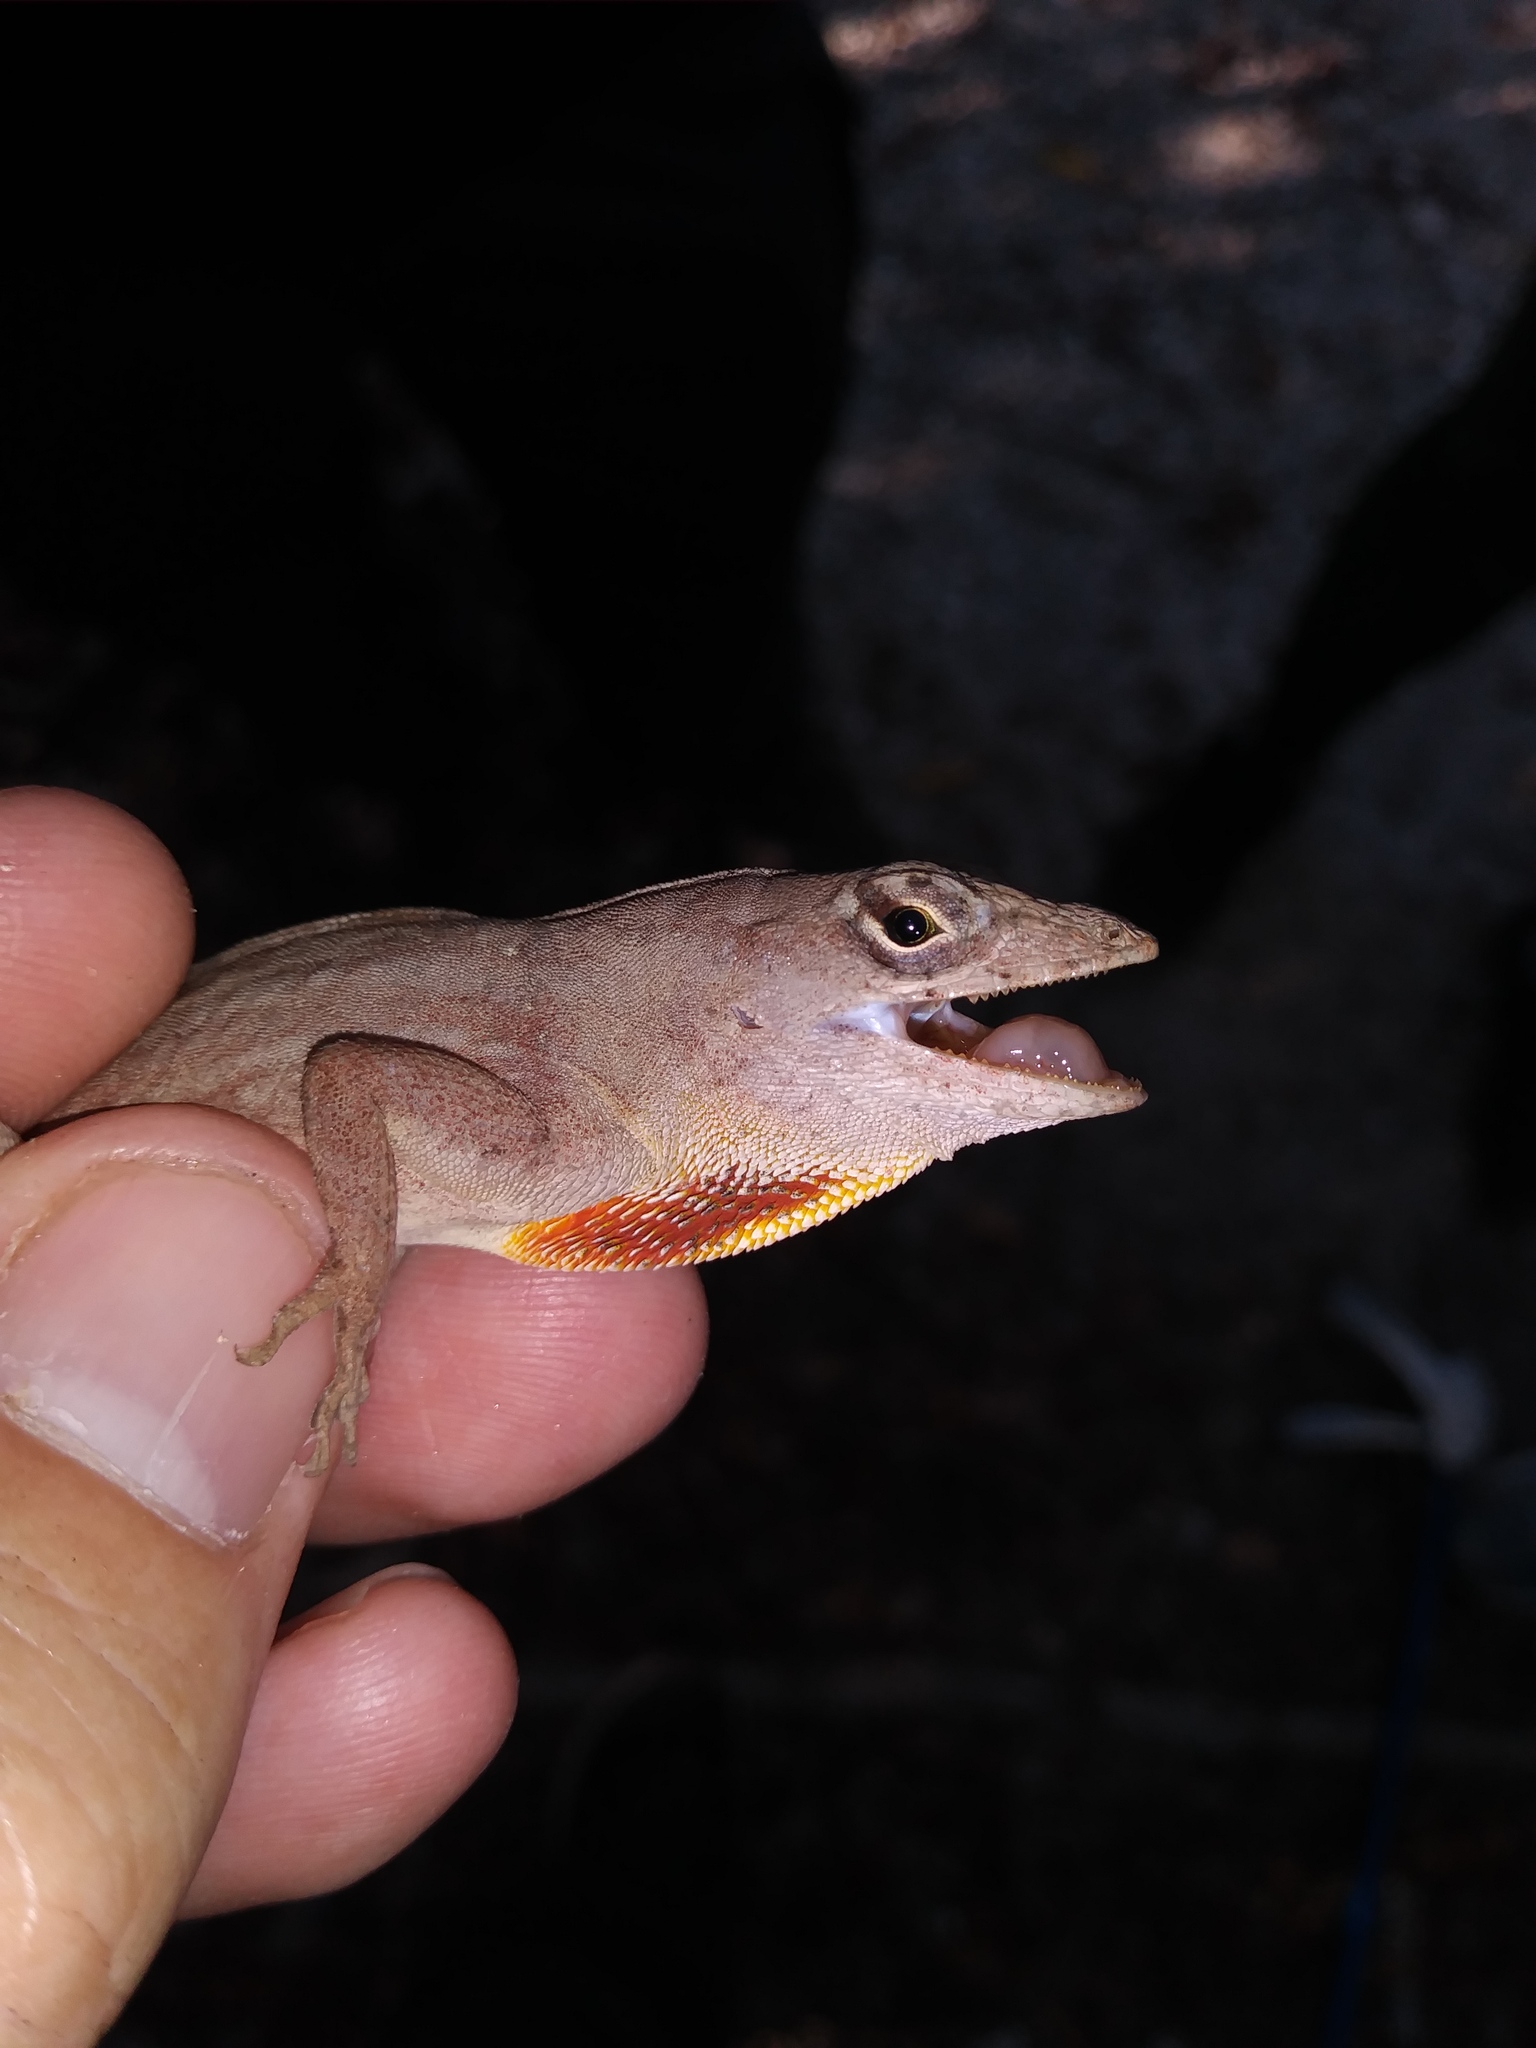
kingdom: Animalia
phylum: Chordata
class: Squamata
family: Dactyloidae
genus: Anolis
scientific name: Anolis sagrei
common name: Brown anole
